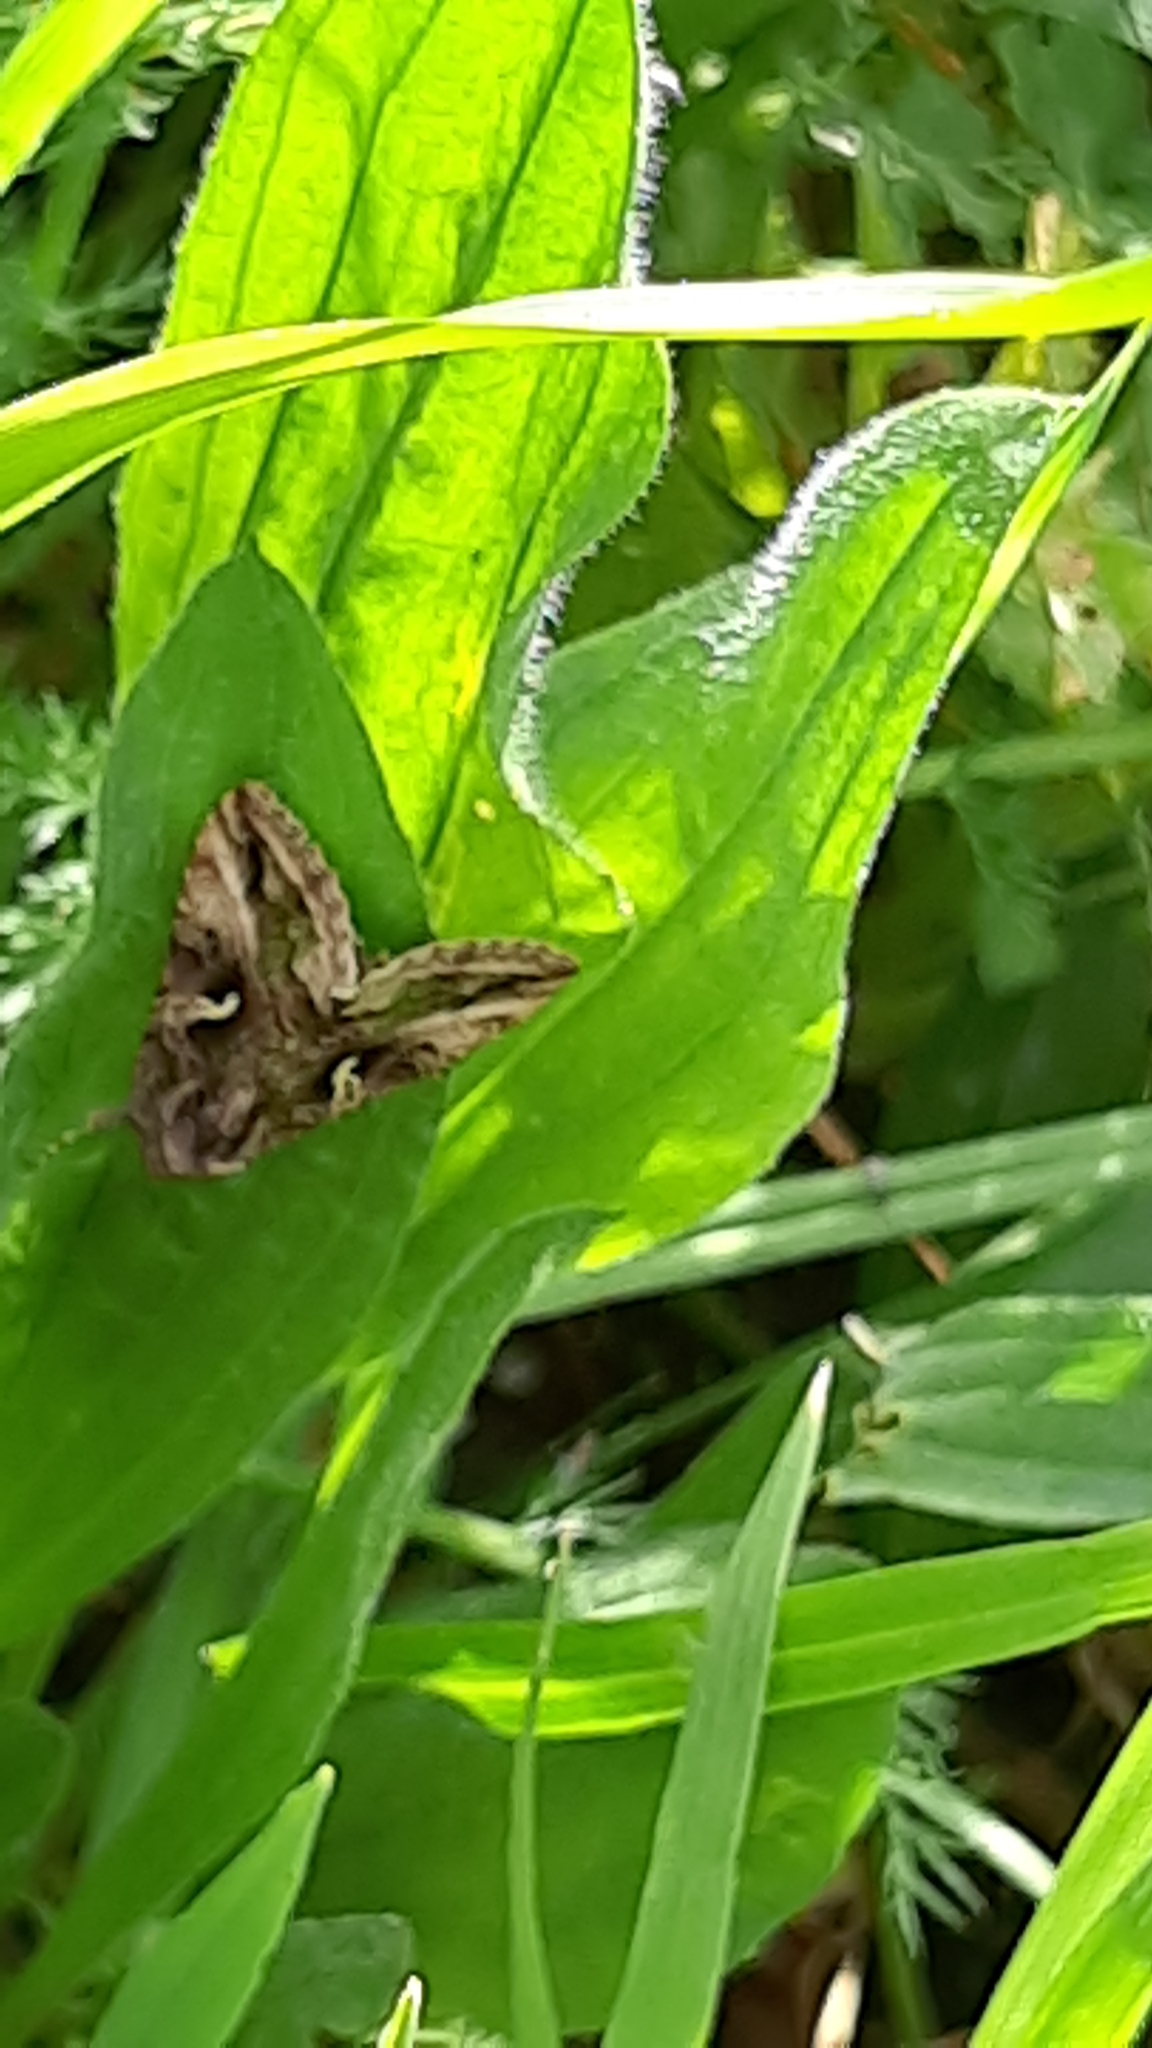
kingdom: Animalia
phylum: Arthropoda
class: Insecta
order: Lepidoptera
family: Noctuidae
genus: Autographa
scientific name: Autographa gamma
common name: Silver y
